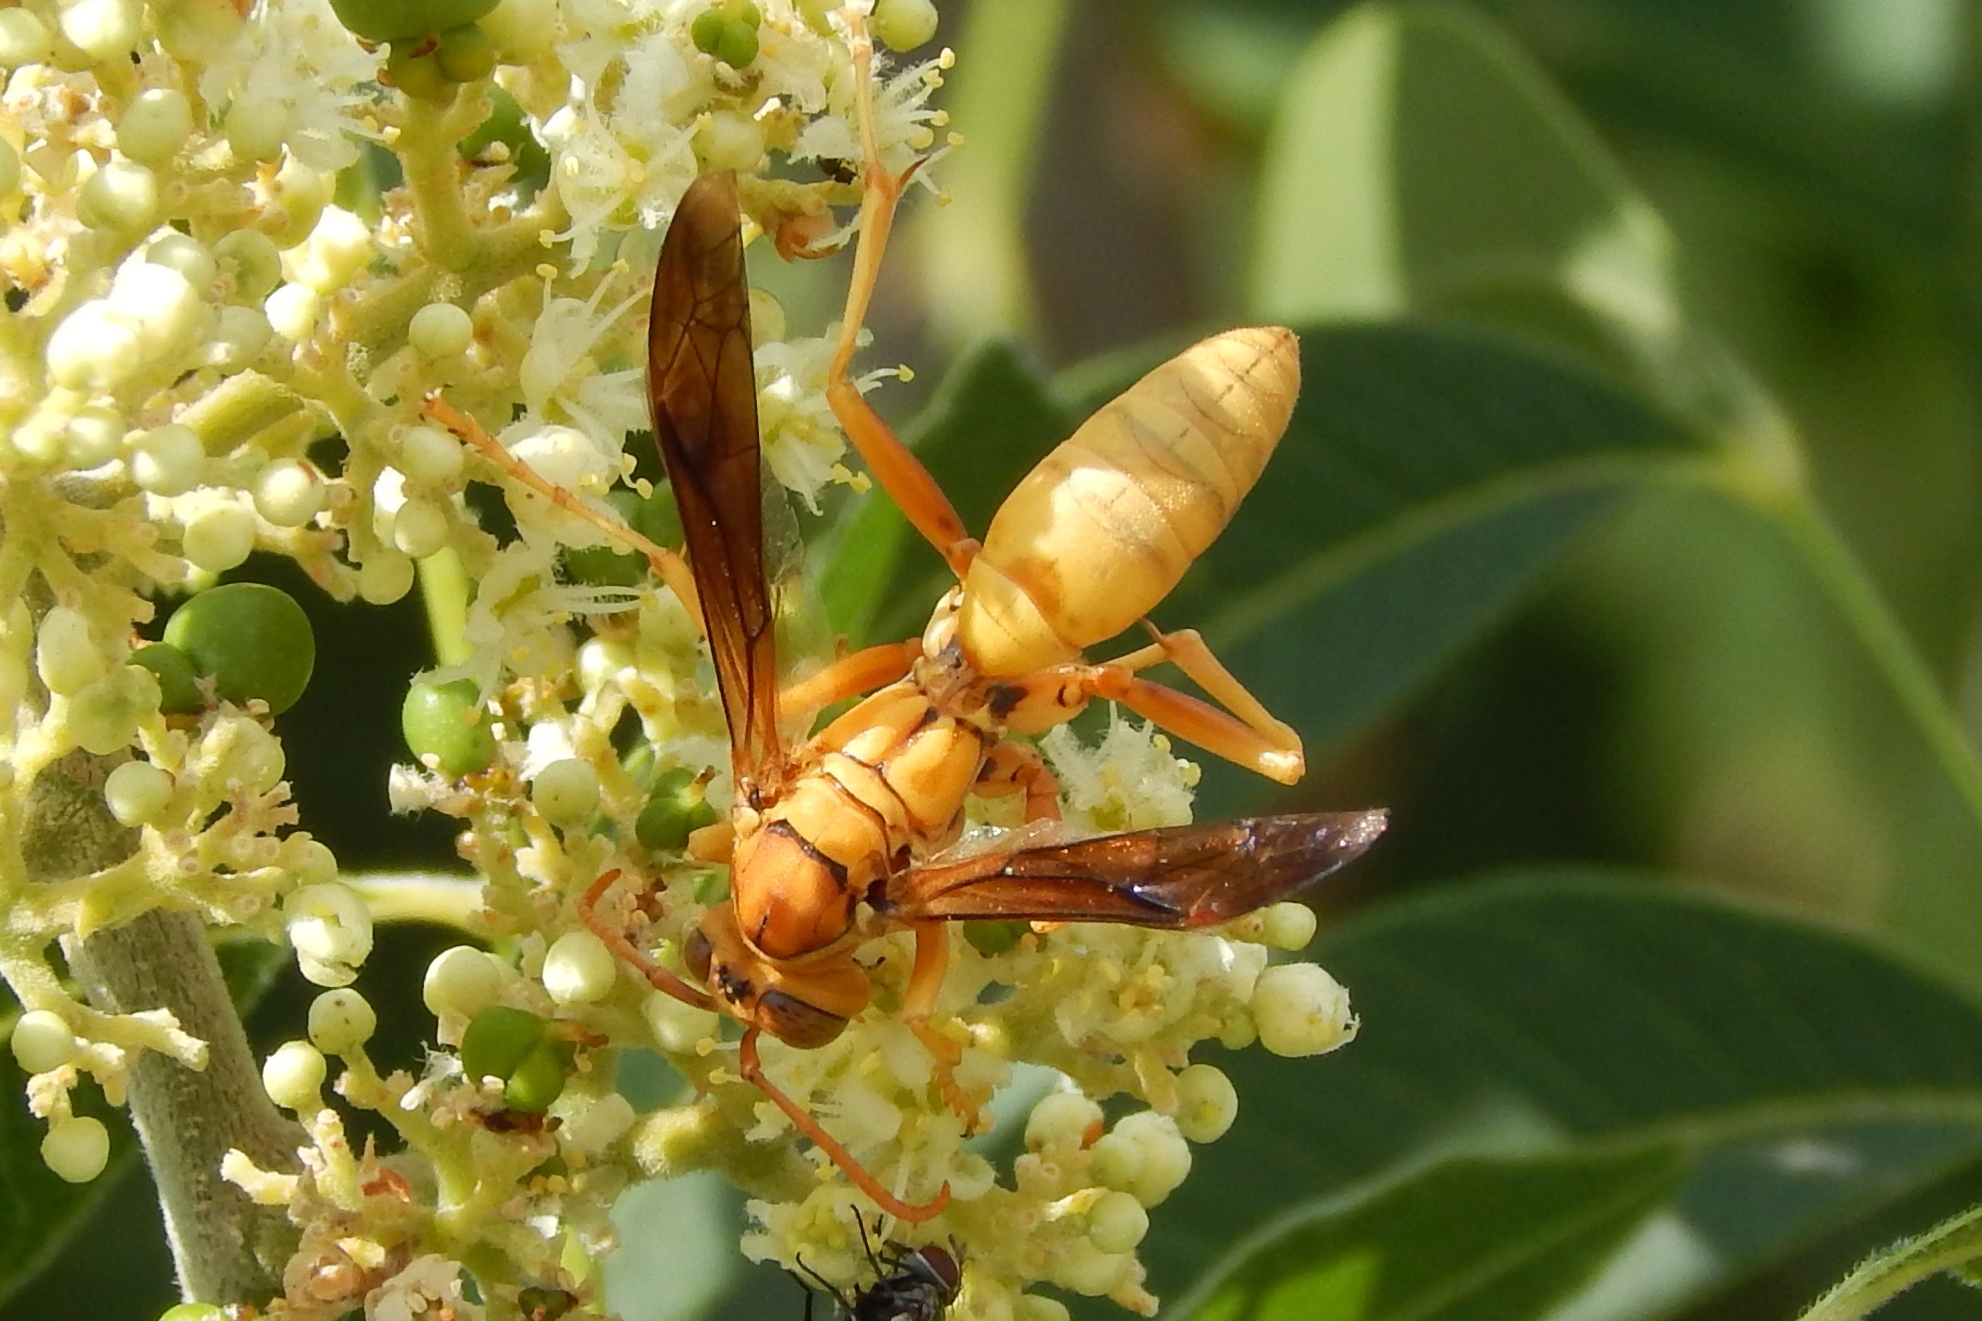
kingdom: Animalia
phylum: Arthropoda
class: Insecta
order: Hymenoptera
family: Eumenidae
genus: Polistes
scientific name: Polistes flavus
